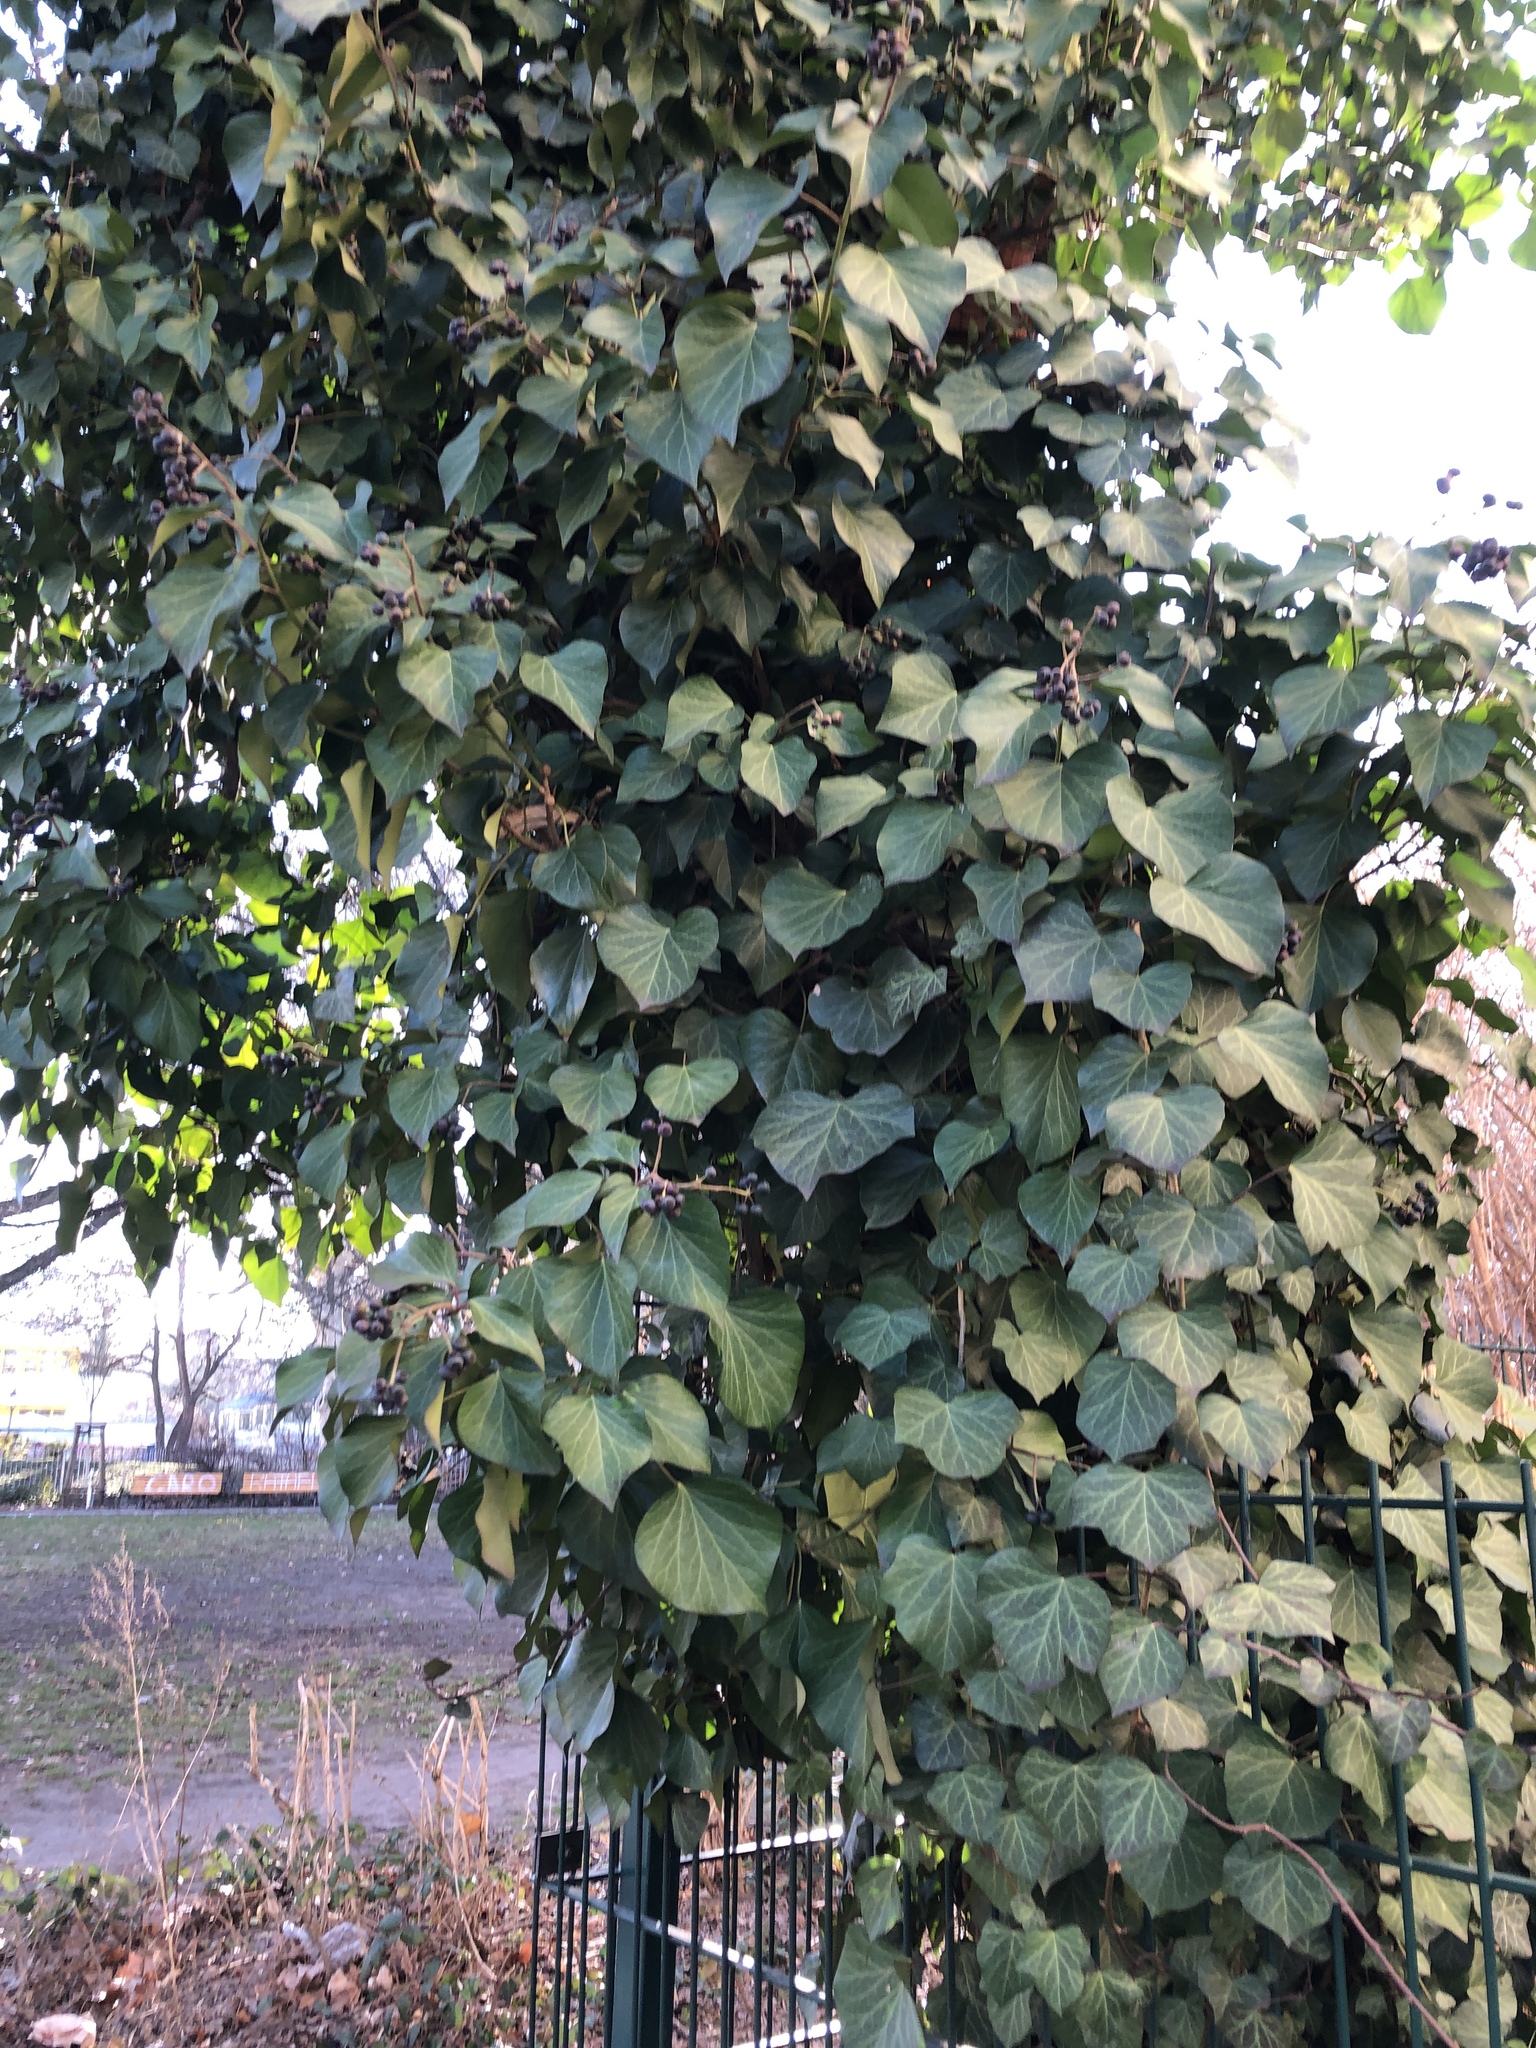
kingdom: Plantae
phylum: Tracheophyta
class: Magnoliopsida
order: Apiales
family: Araliaceae
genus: Hedera
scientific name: Hedera helix
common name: Ivy
